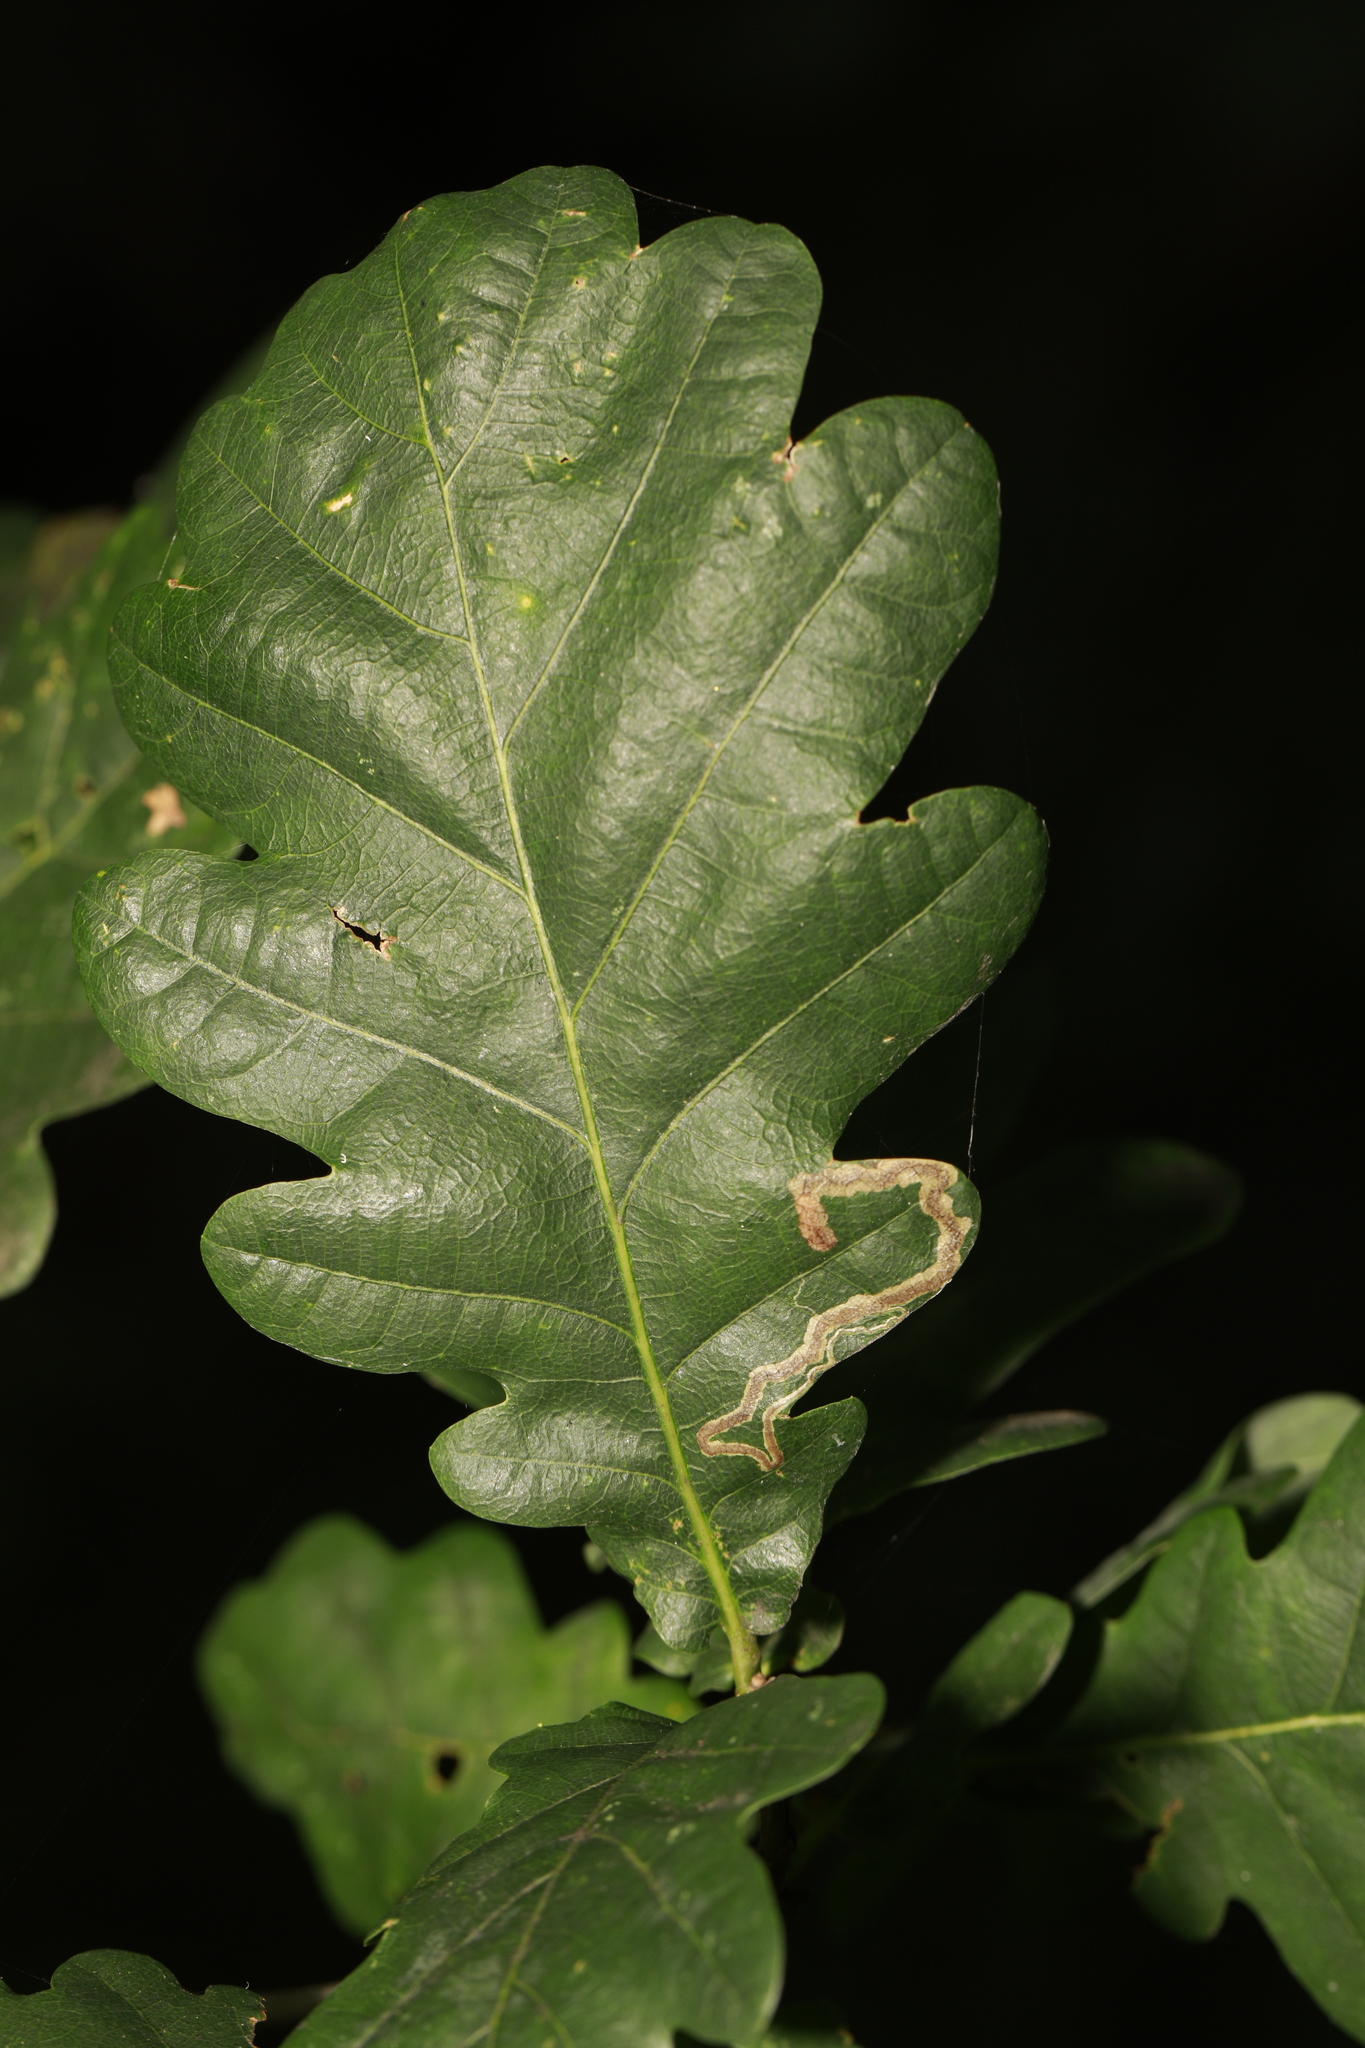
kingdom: Animalia
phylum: Arthropoda
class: Insecta
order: Lepidoptera
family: Nepticulidae
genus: Stigmella
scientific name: Stigmella ruficapitella
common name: Red-headed pigmy
